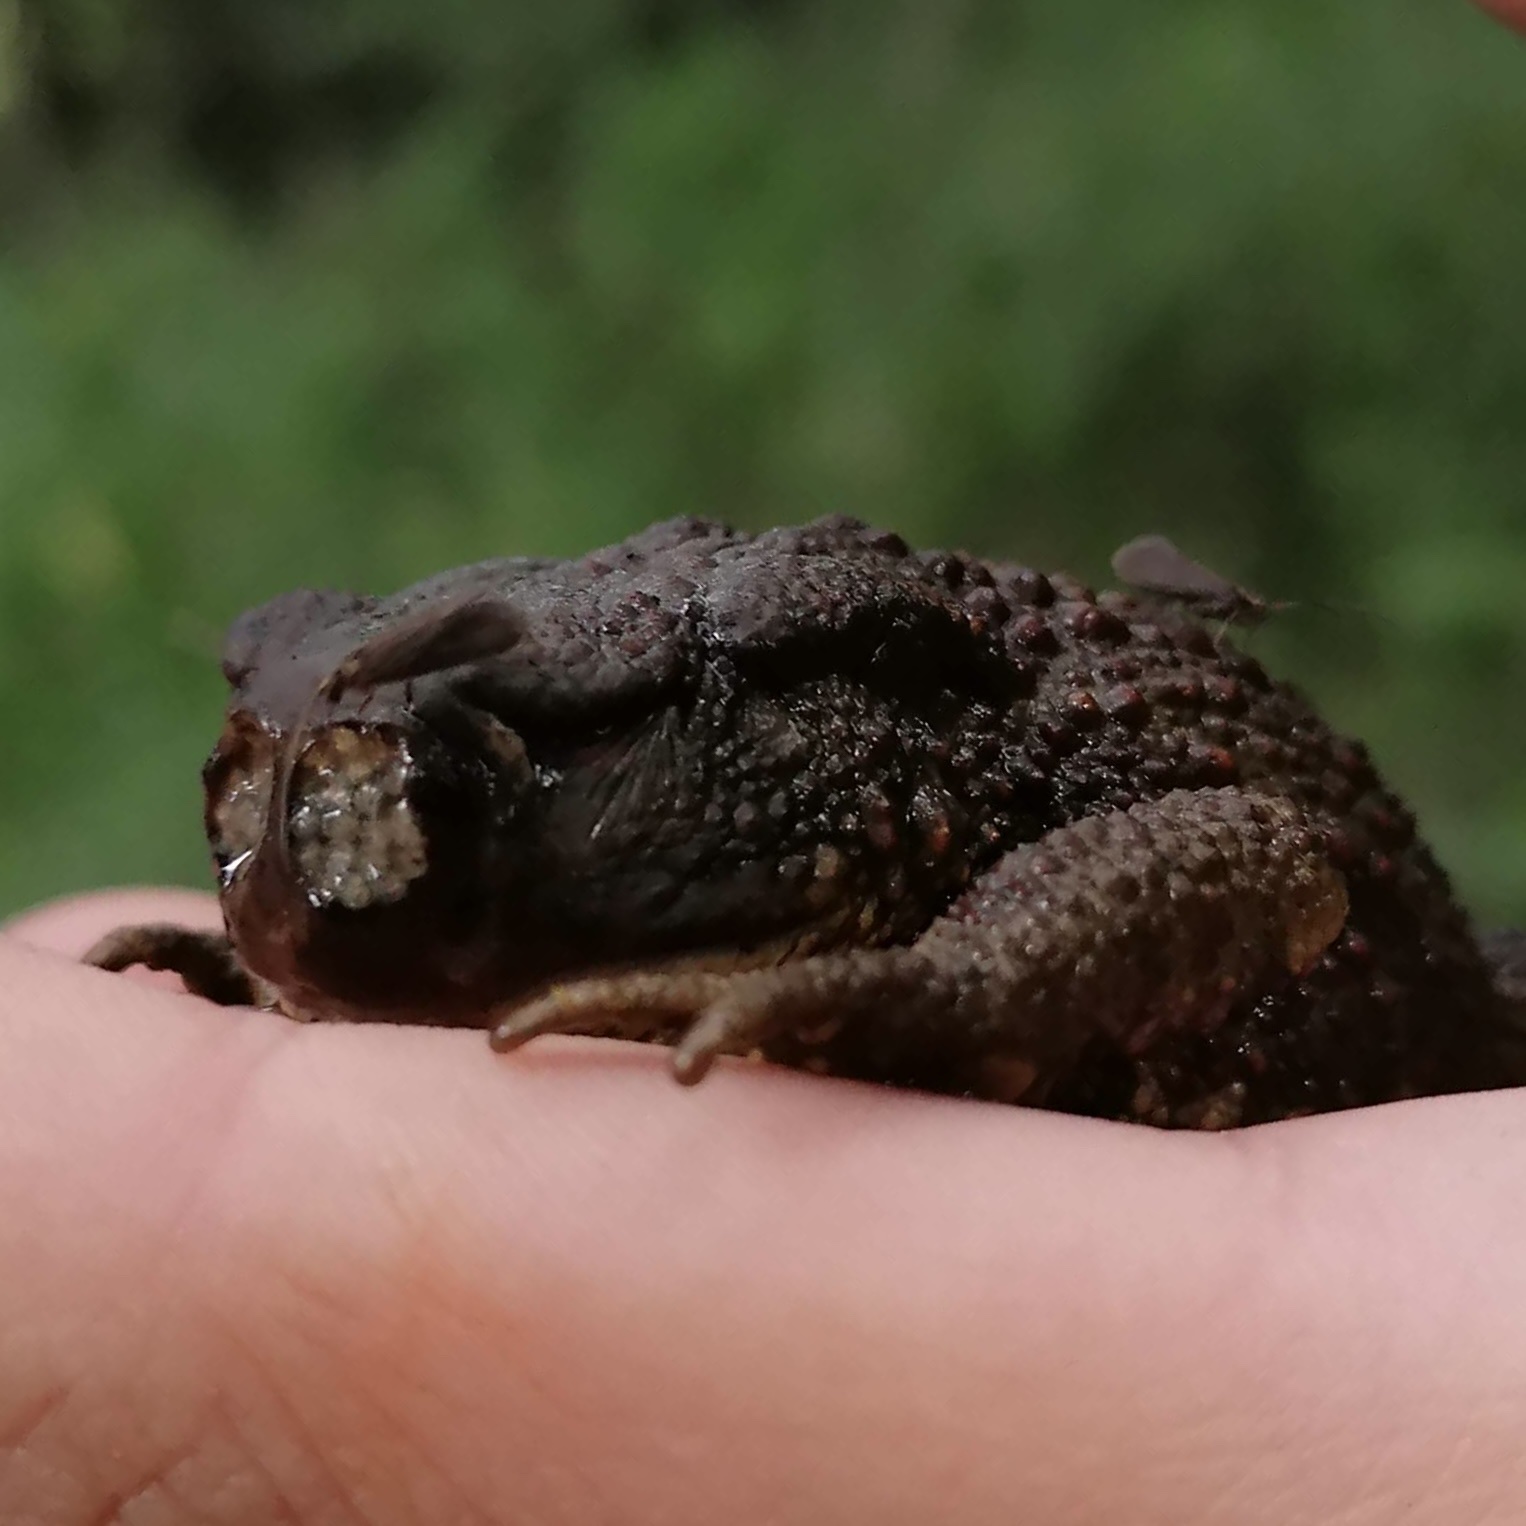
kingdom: Animalia
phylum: Chordata
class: Amphibia
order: Anura
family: Bufonidae
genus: Bufo
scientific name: Bufo bufo
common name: Common toad
